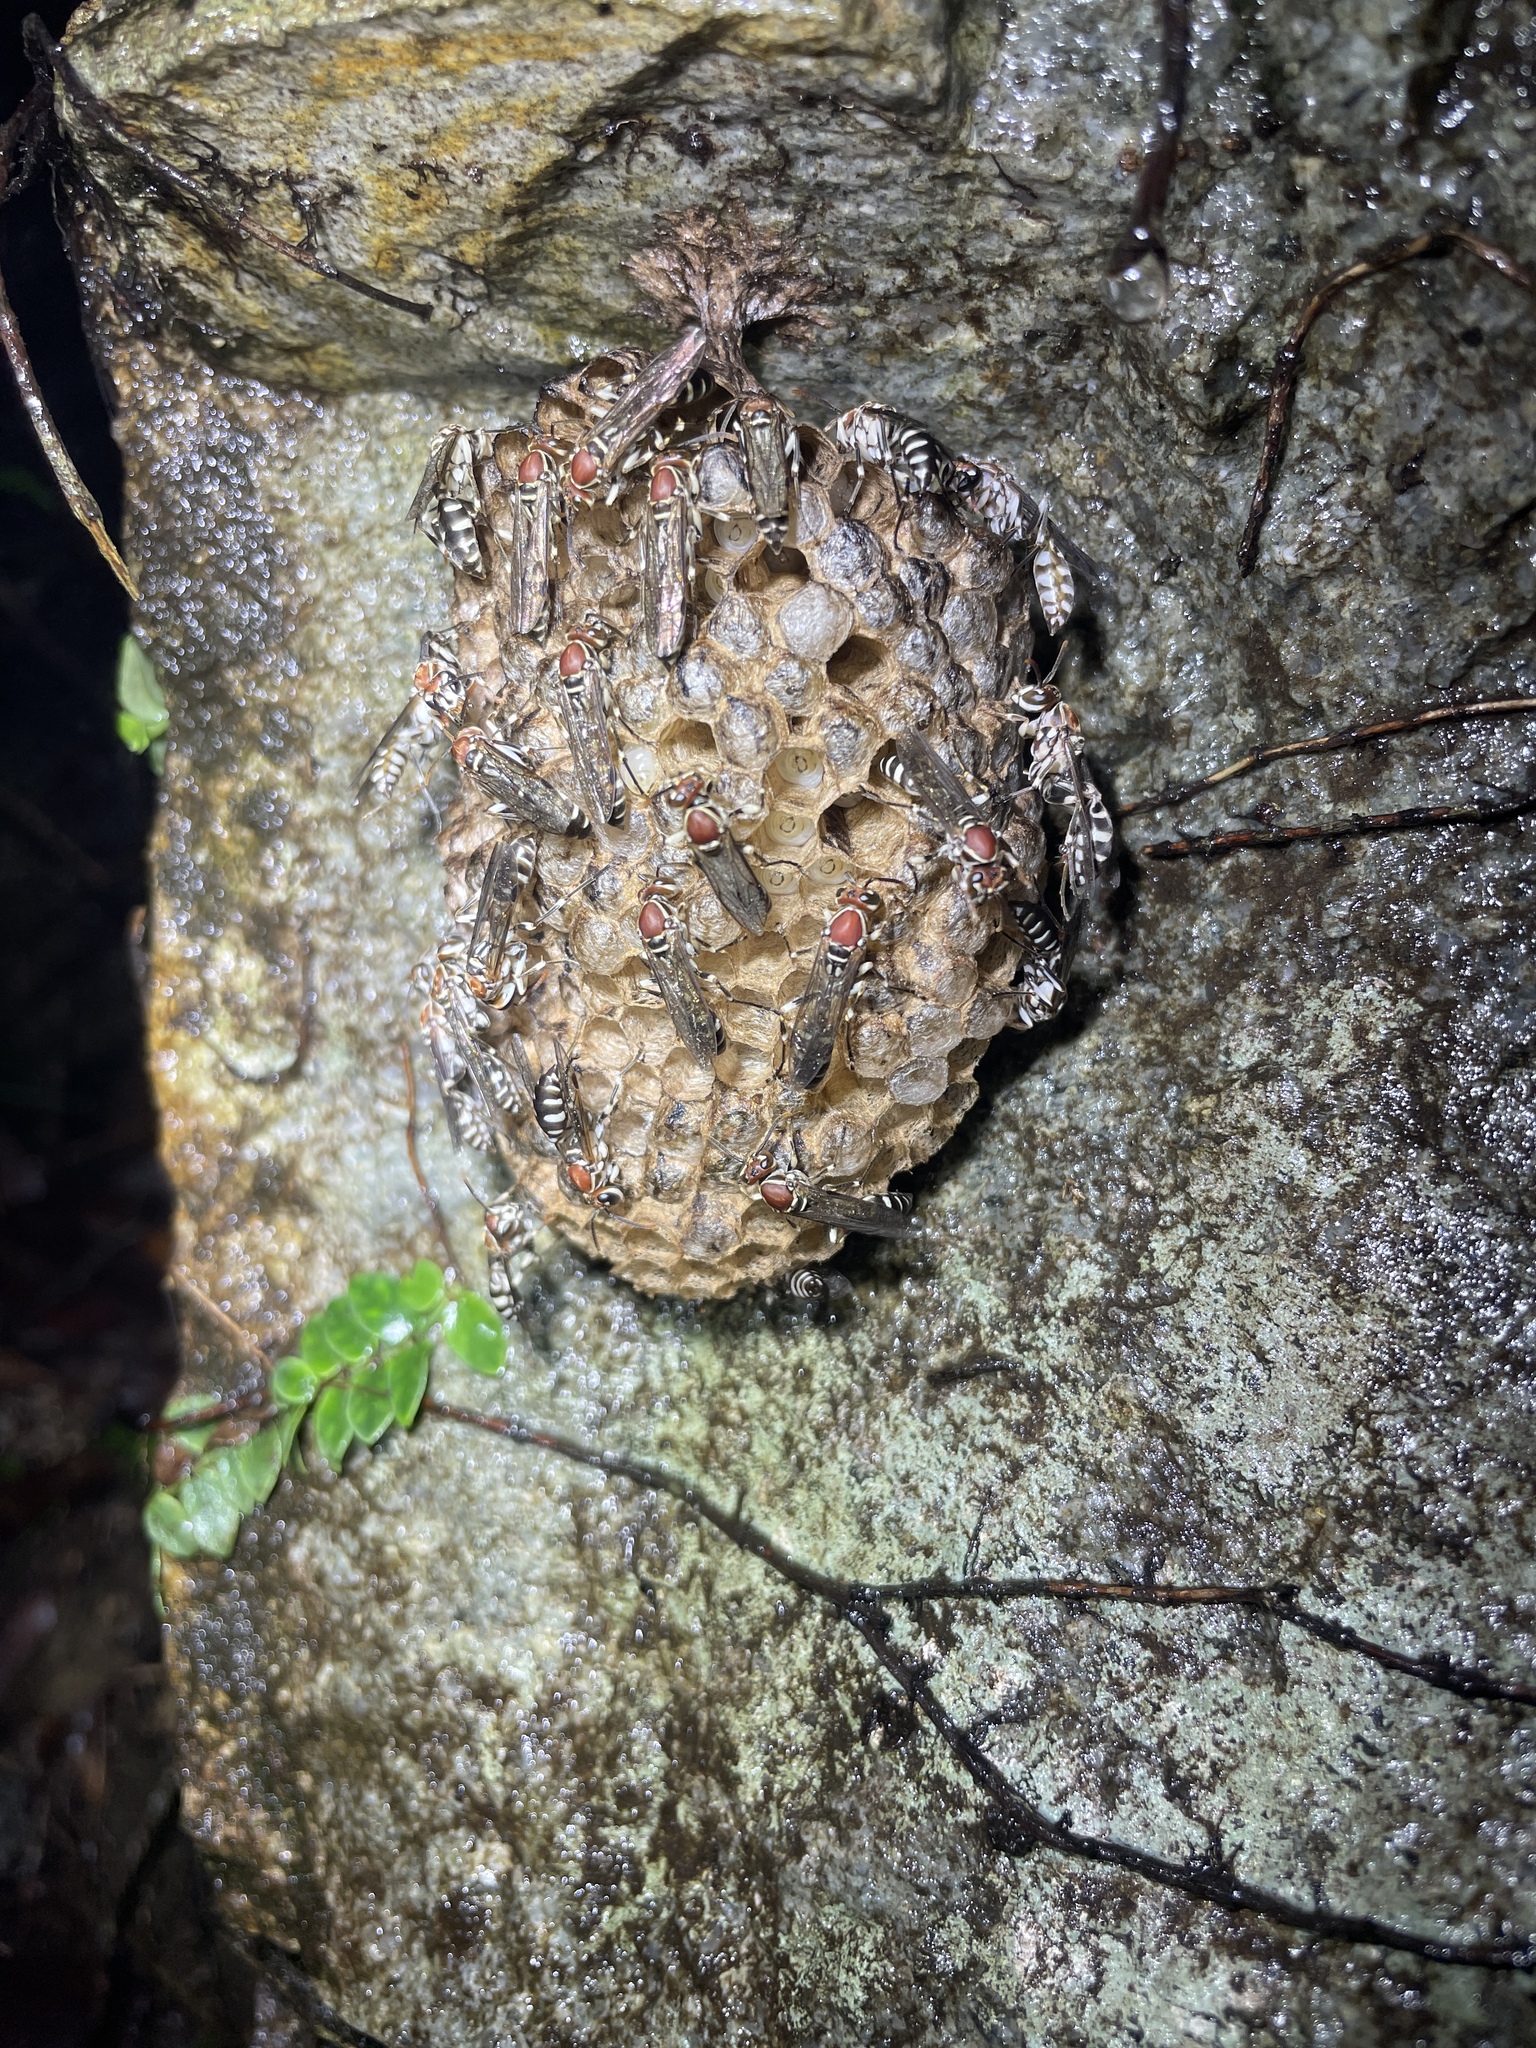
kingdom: Animalia
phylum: Arthropoda
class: Insecta
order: Hymenoptera
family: Vespidae
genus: Parapolybia
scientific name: Parapolybia nodosa
